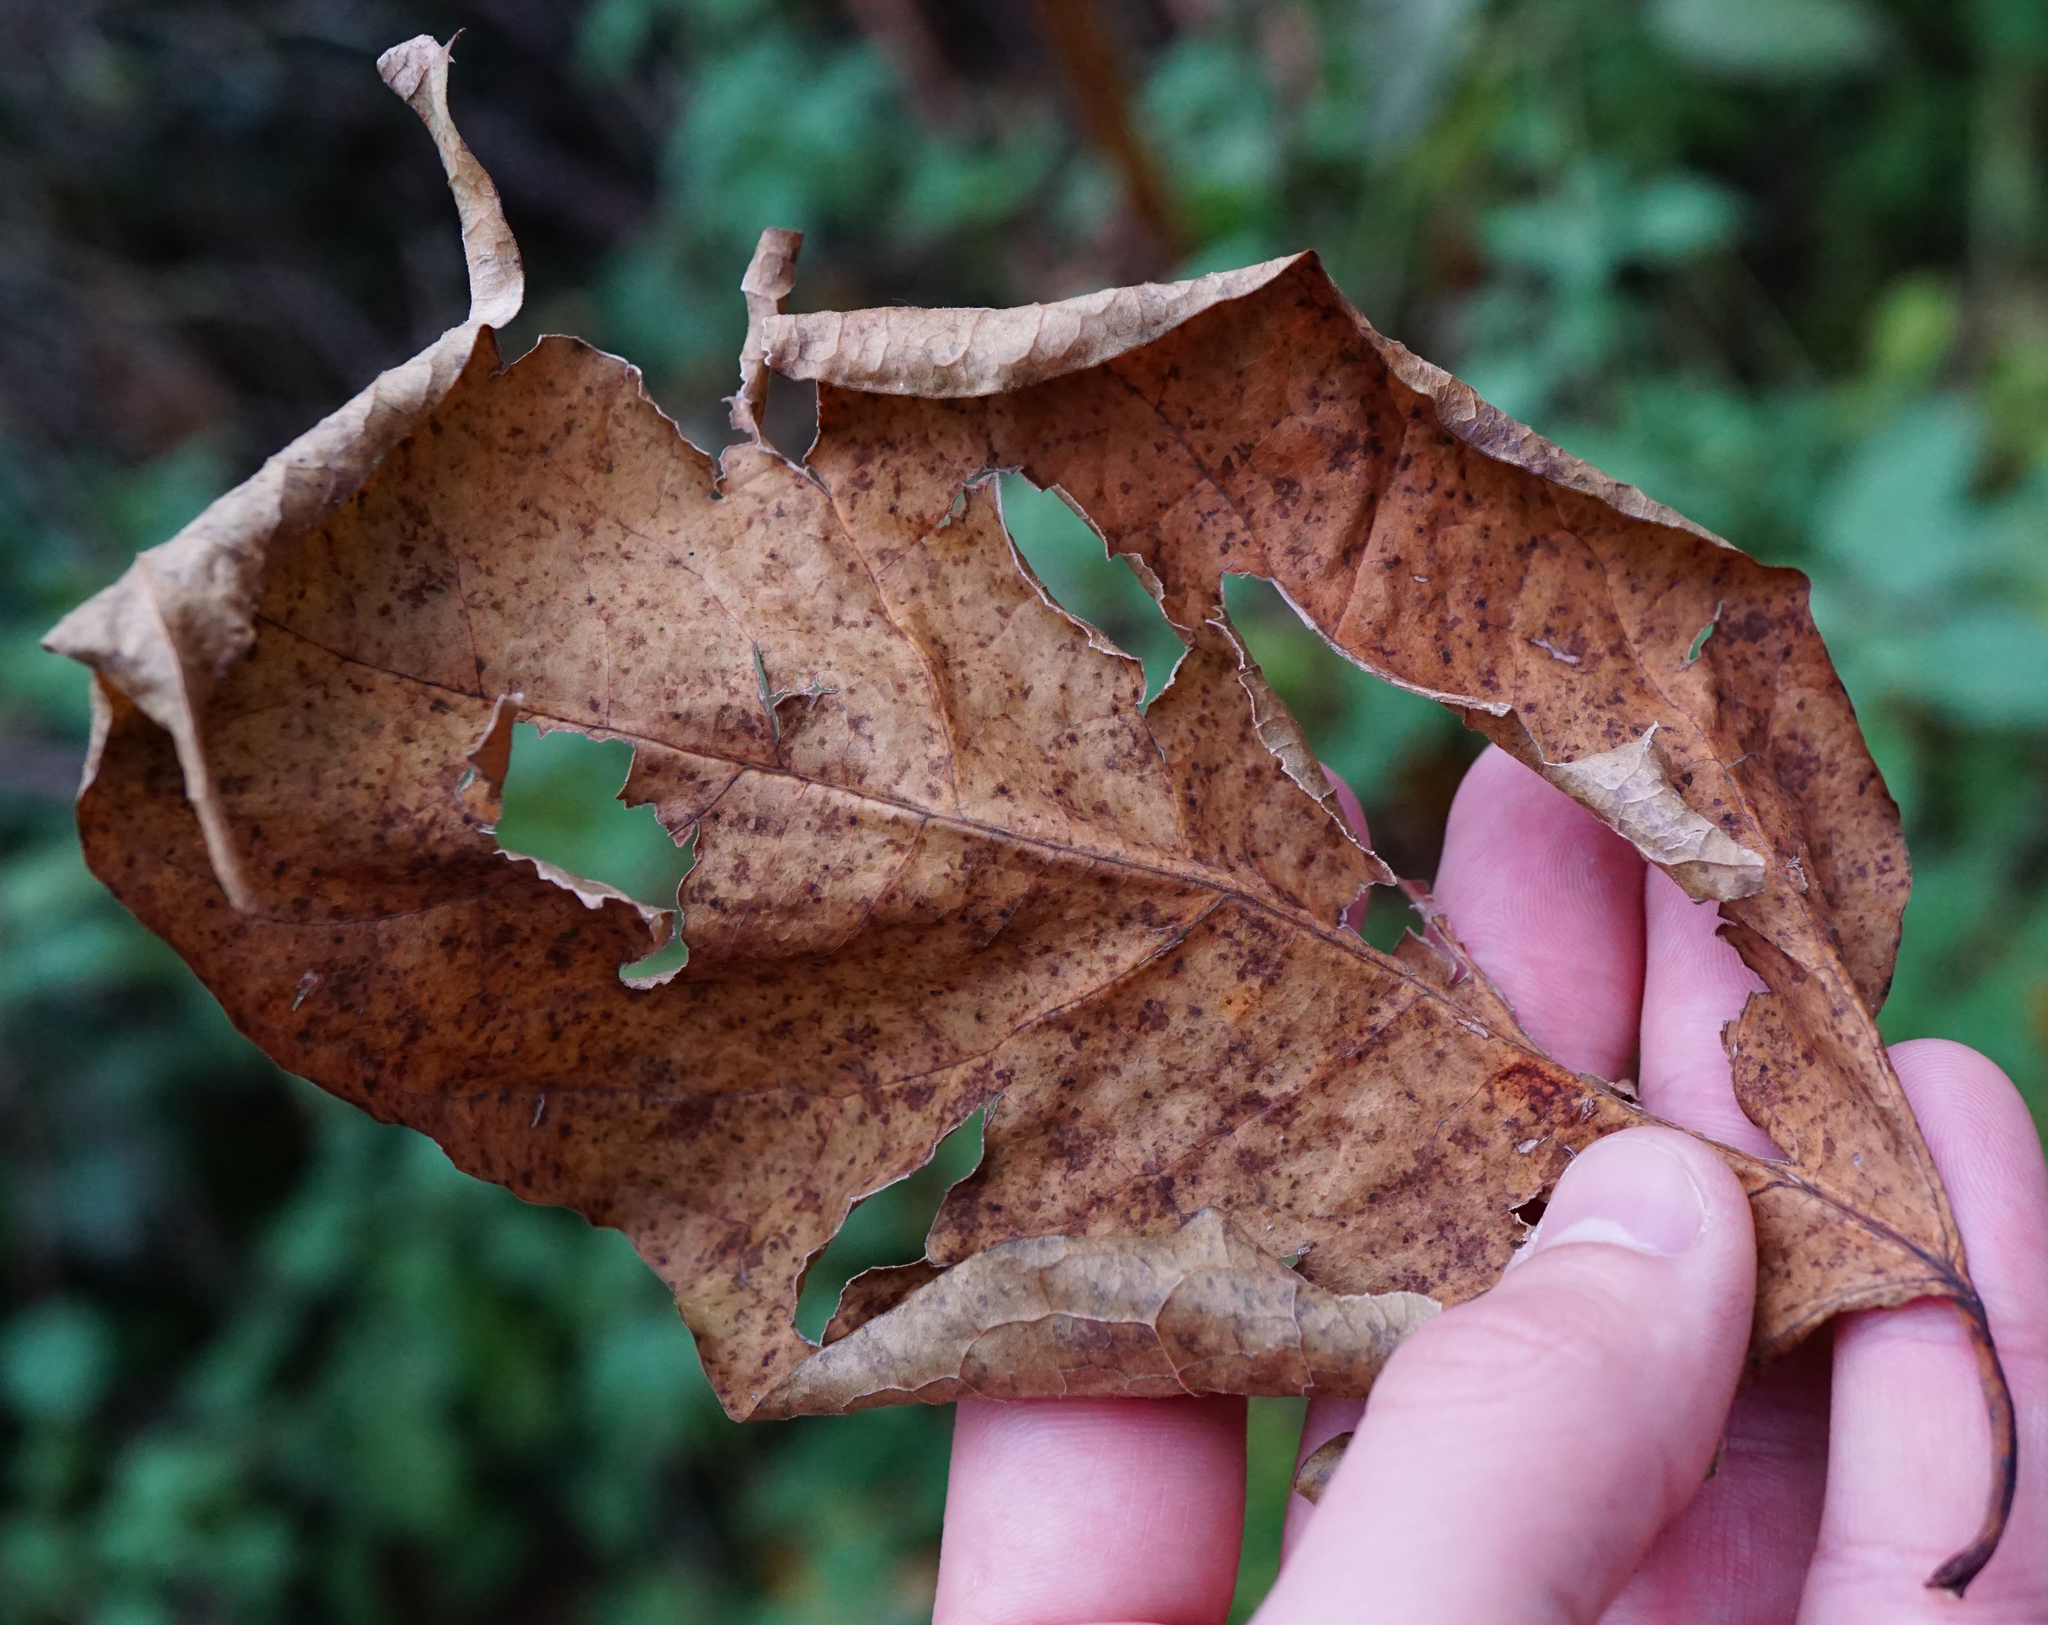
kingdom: Plantae
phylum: Tracheophyta
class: Magnoliopsida
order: Caryophyllales
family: Polygonaceae
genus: Reynoutria
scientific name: Reynoutria bohemica
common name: Bohemian knotweed
